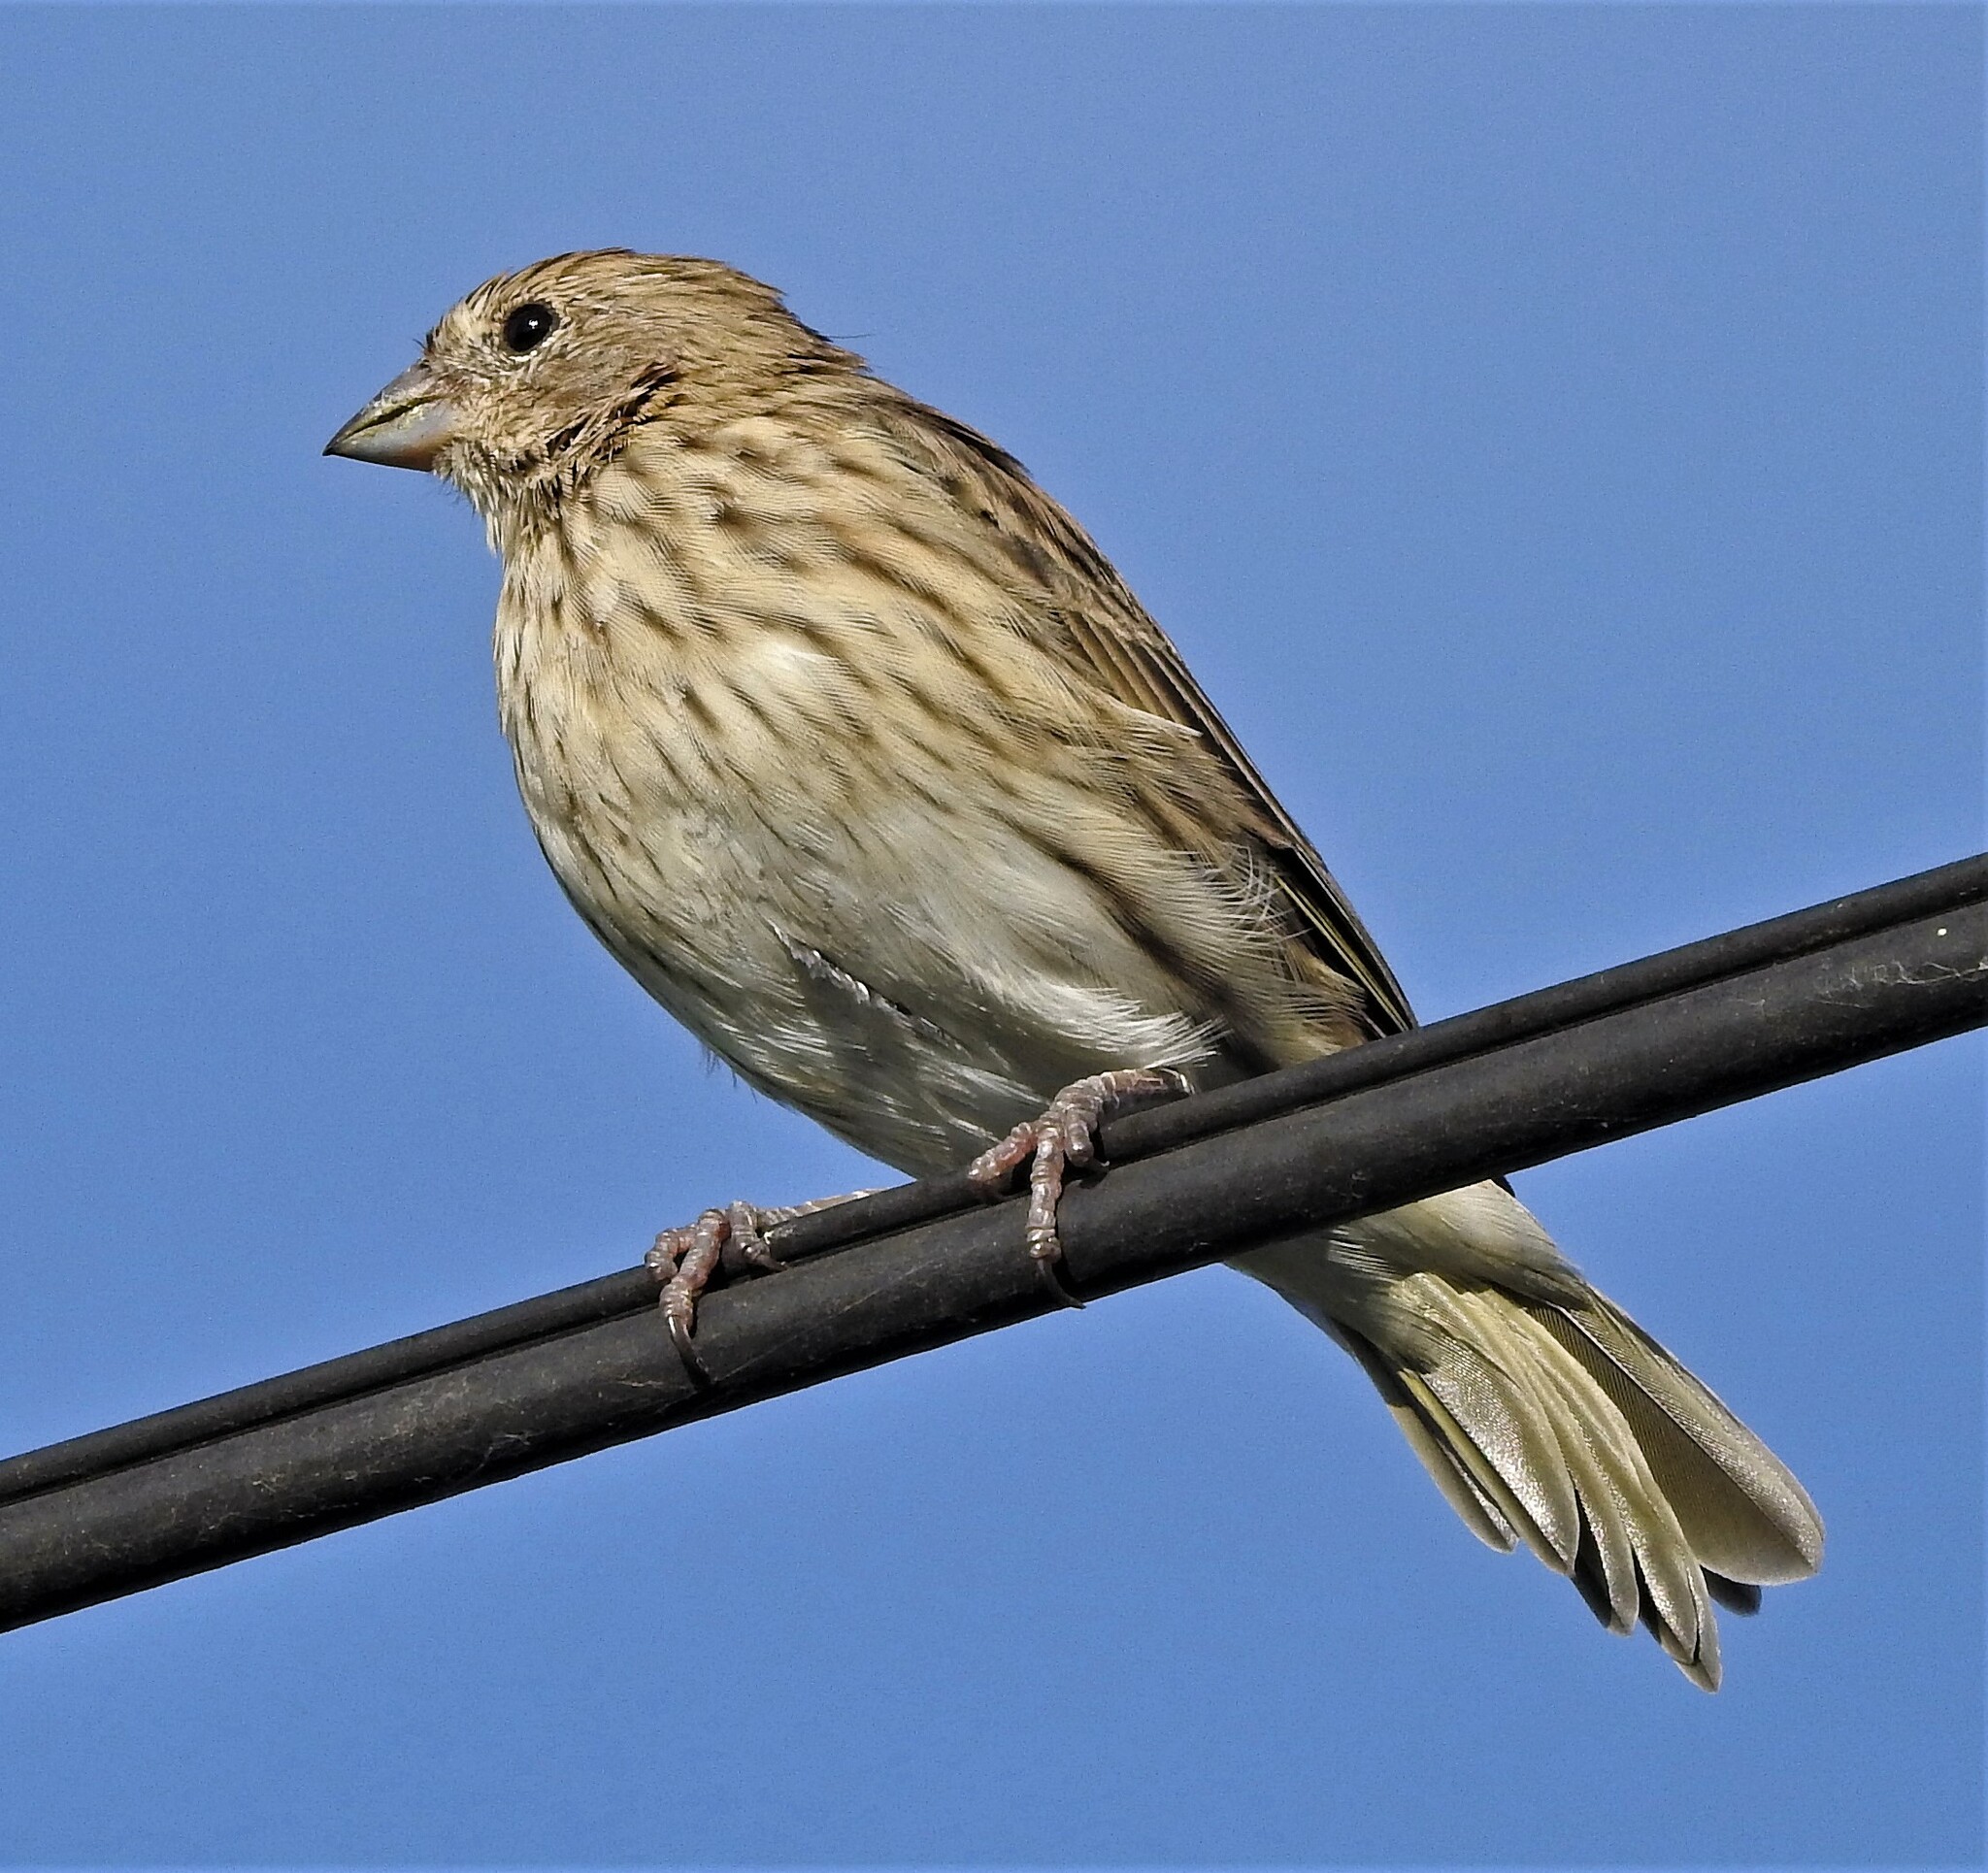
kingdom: Animalia
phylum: Chordata
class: Aves
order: Passeriformes
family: Thraupidae
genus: Sicalis
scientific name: Sicalis flaveola
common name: Saffron finch
